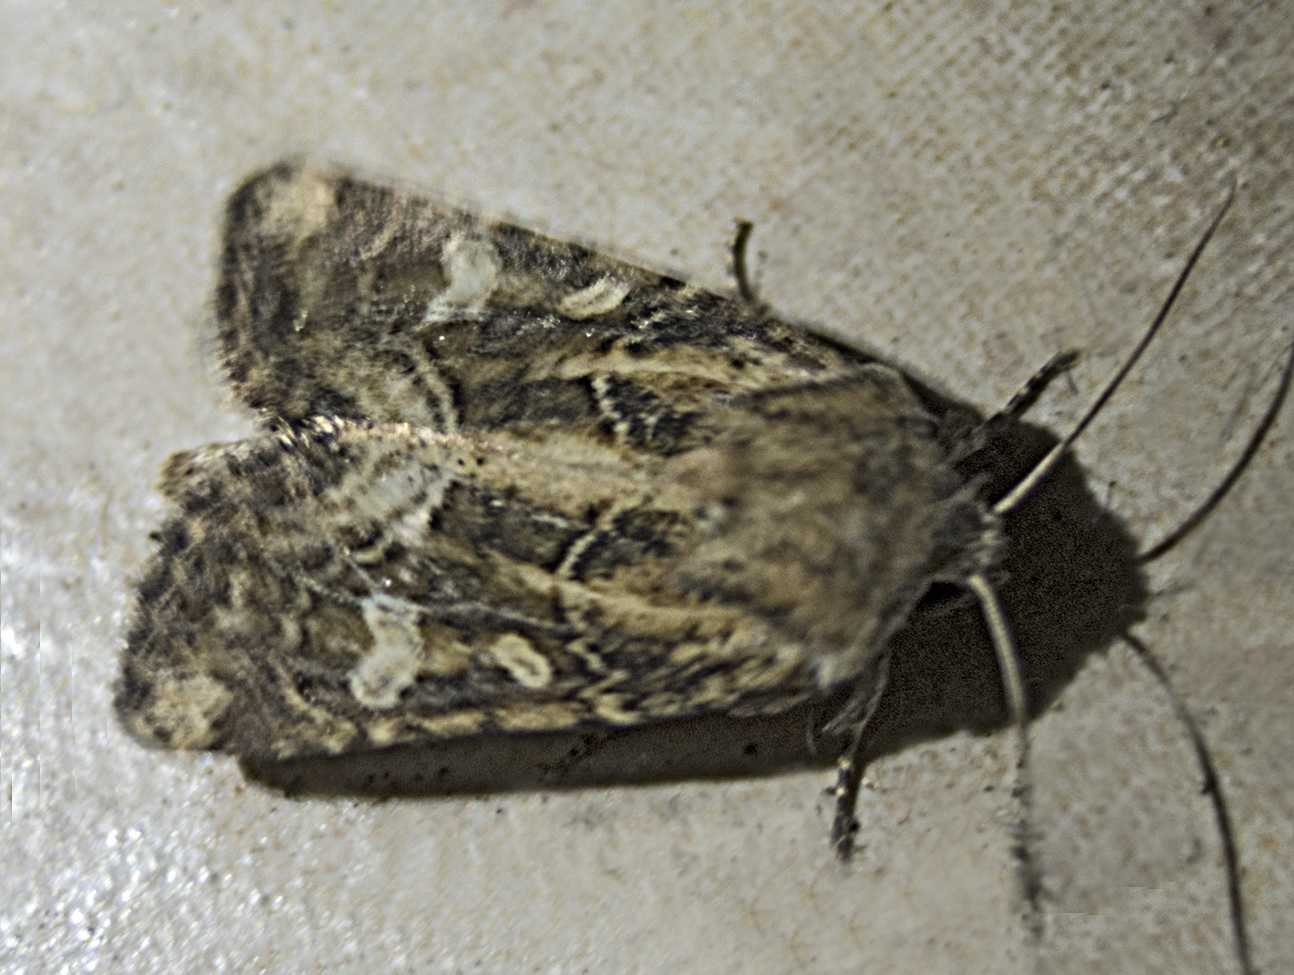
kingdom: Animalia
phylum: Arthropoda
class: Insecta
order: Lepidoptera
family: Noctuidae
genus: Luperina
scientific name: Luperina dumerilii
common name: Dumeril's rustic
